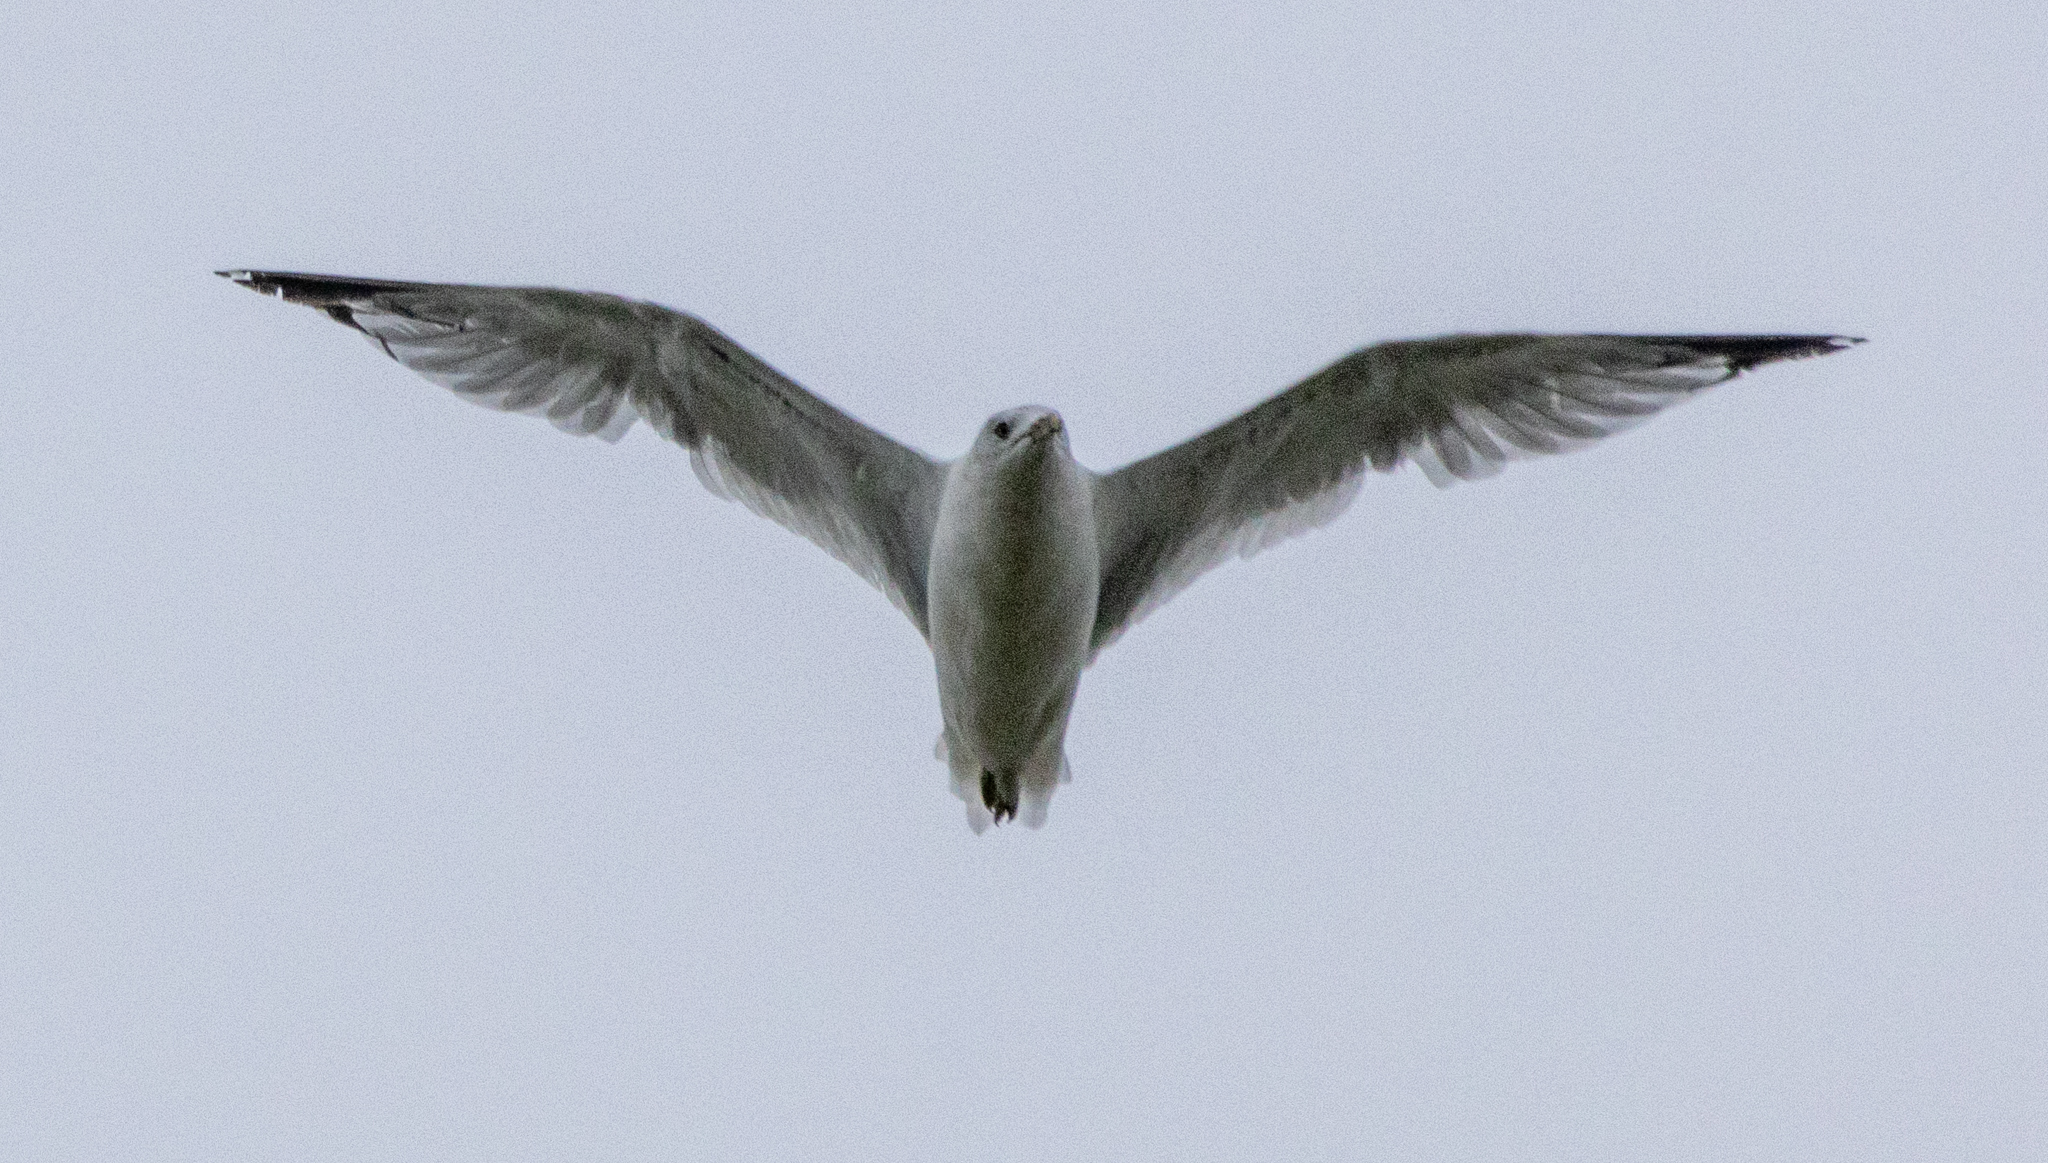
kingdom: Animalia
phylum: Chordata
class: Aves
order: Charadriiformes
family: Laridae
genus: Larus
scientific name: Larus delawarensis
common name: Ring-billed gull
